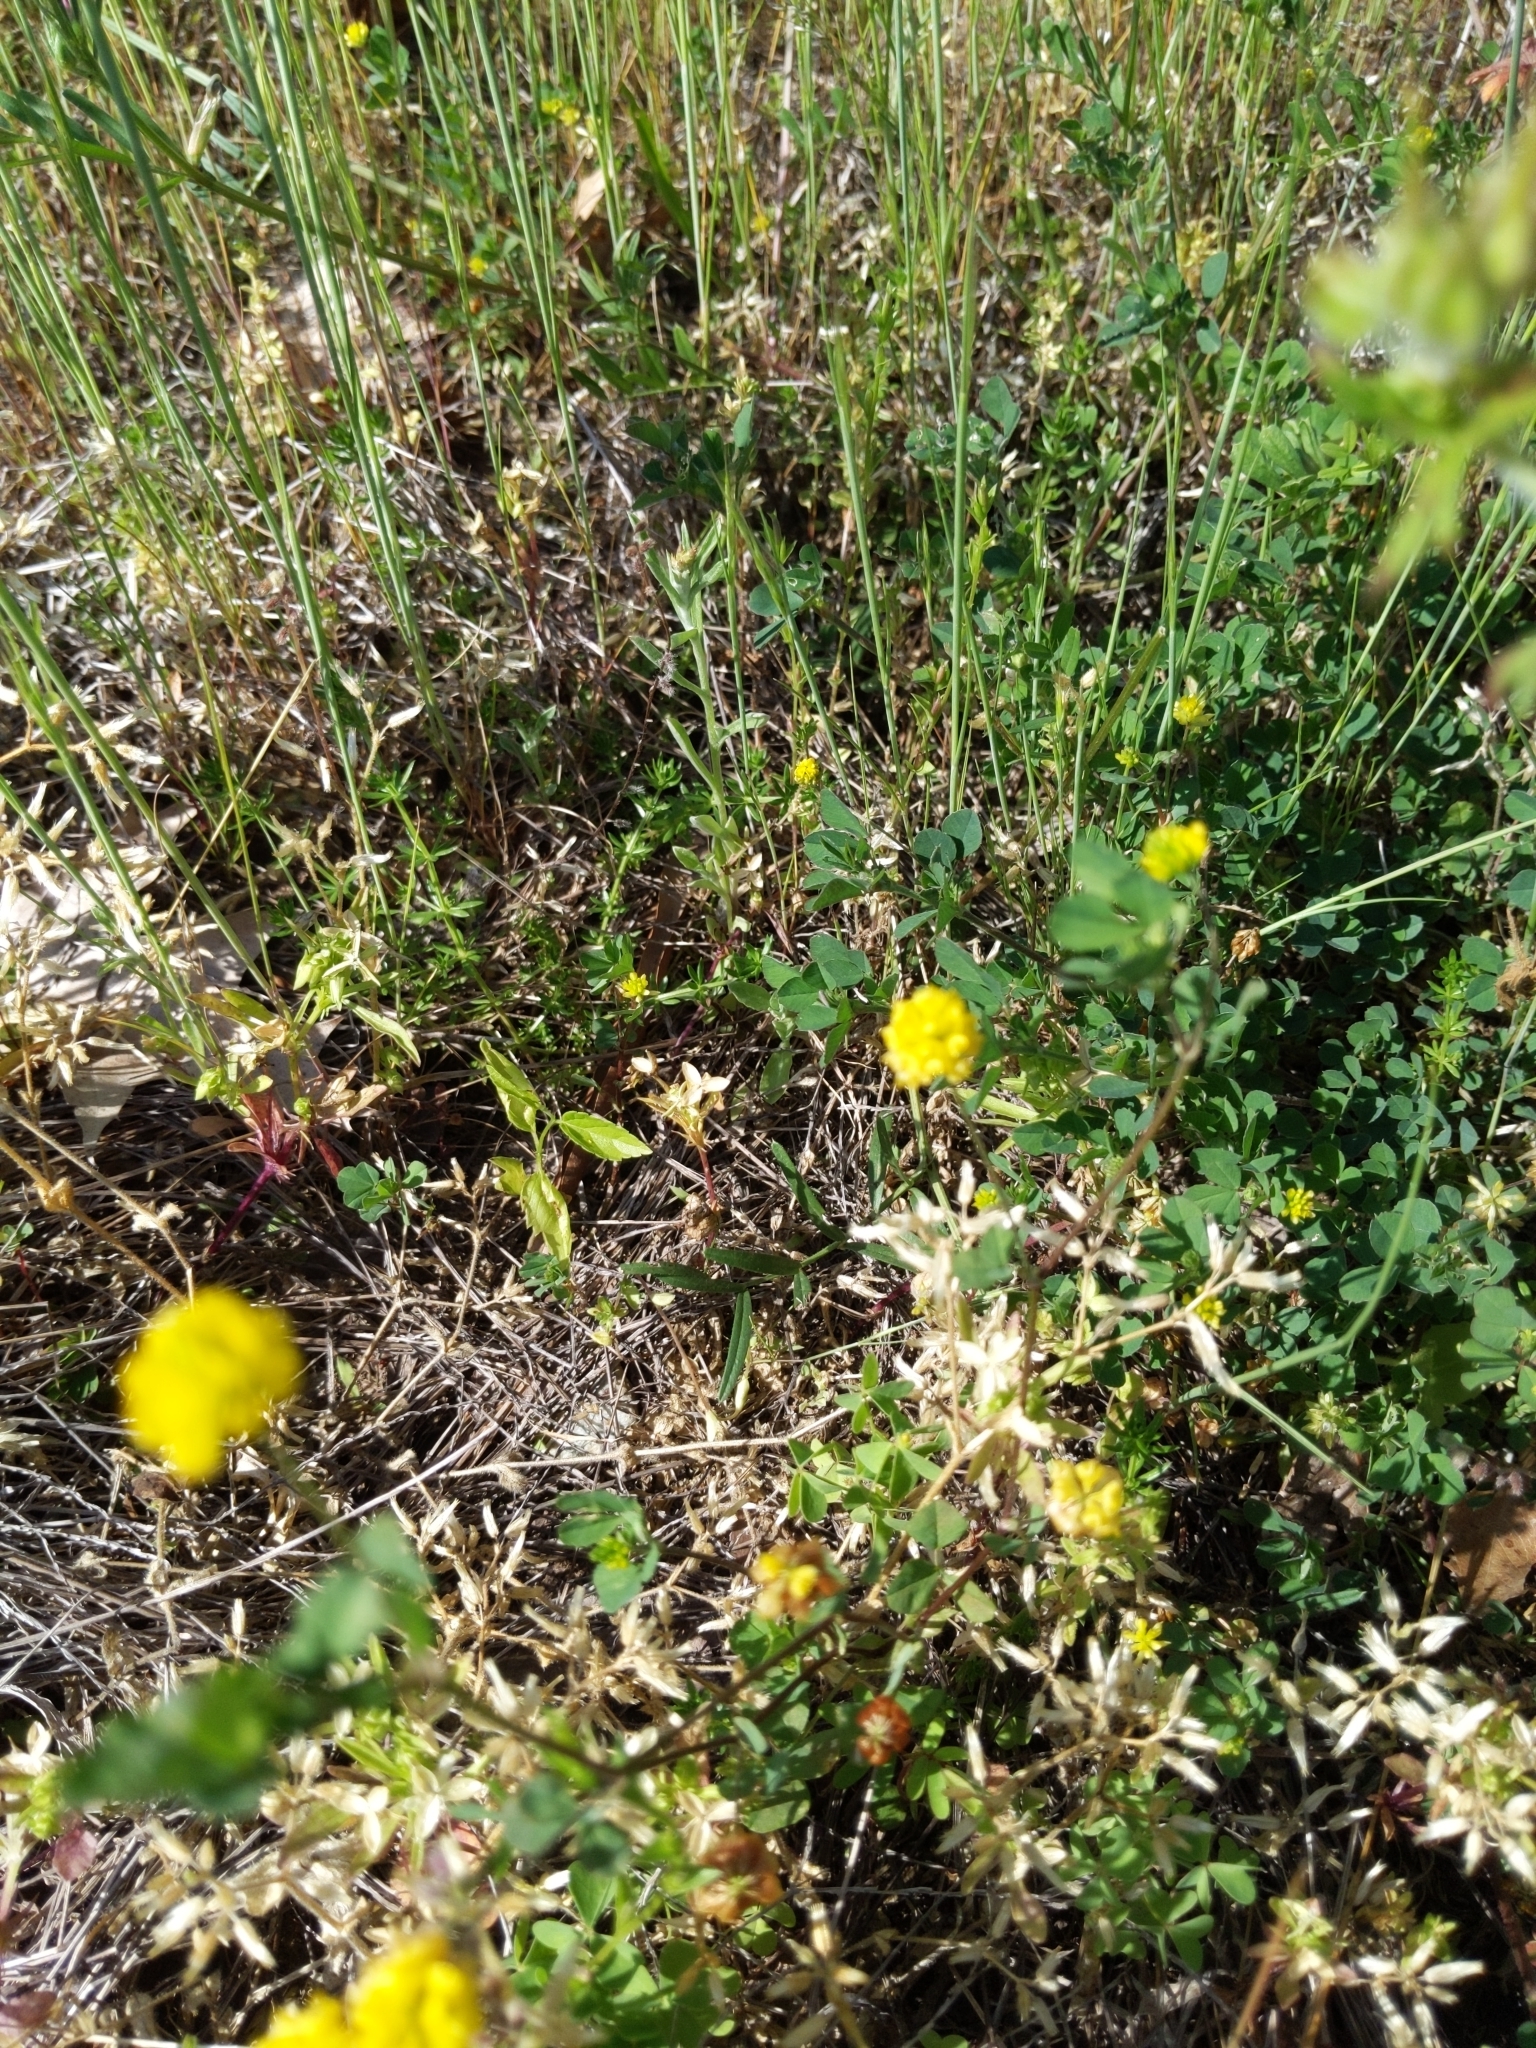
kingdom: Plantae
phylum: Tracheophyta
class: Magnoliopsida
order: Fabales
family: Fabaceae
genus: Trifolium
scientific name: Trifolium campestre
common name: Field clover
